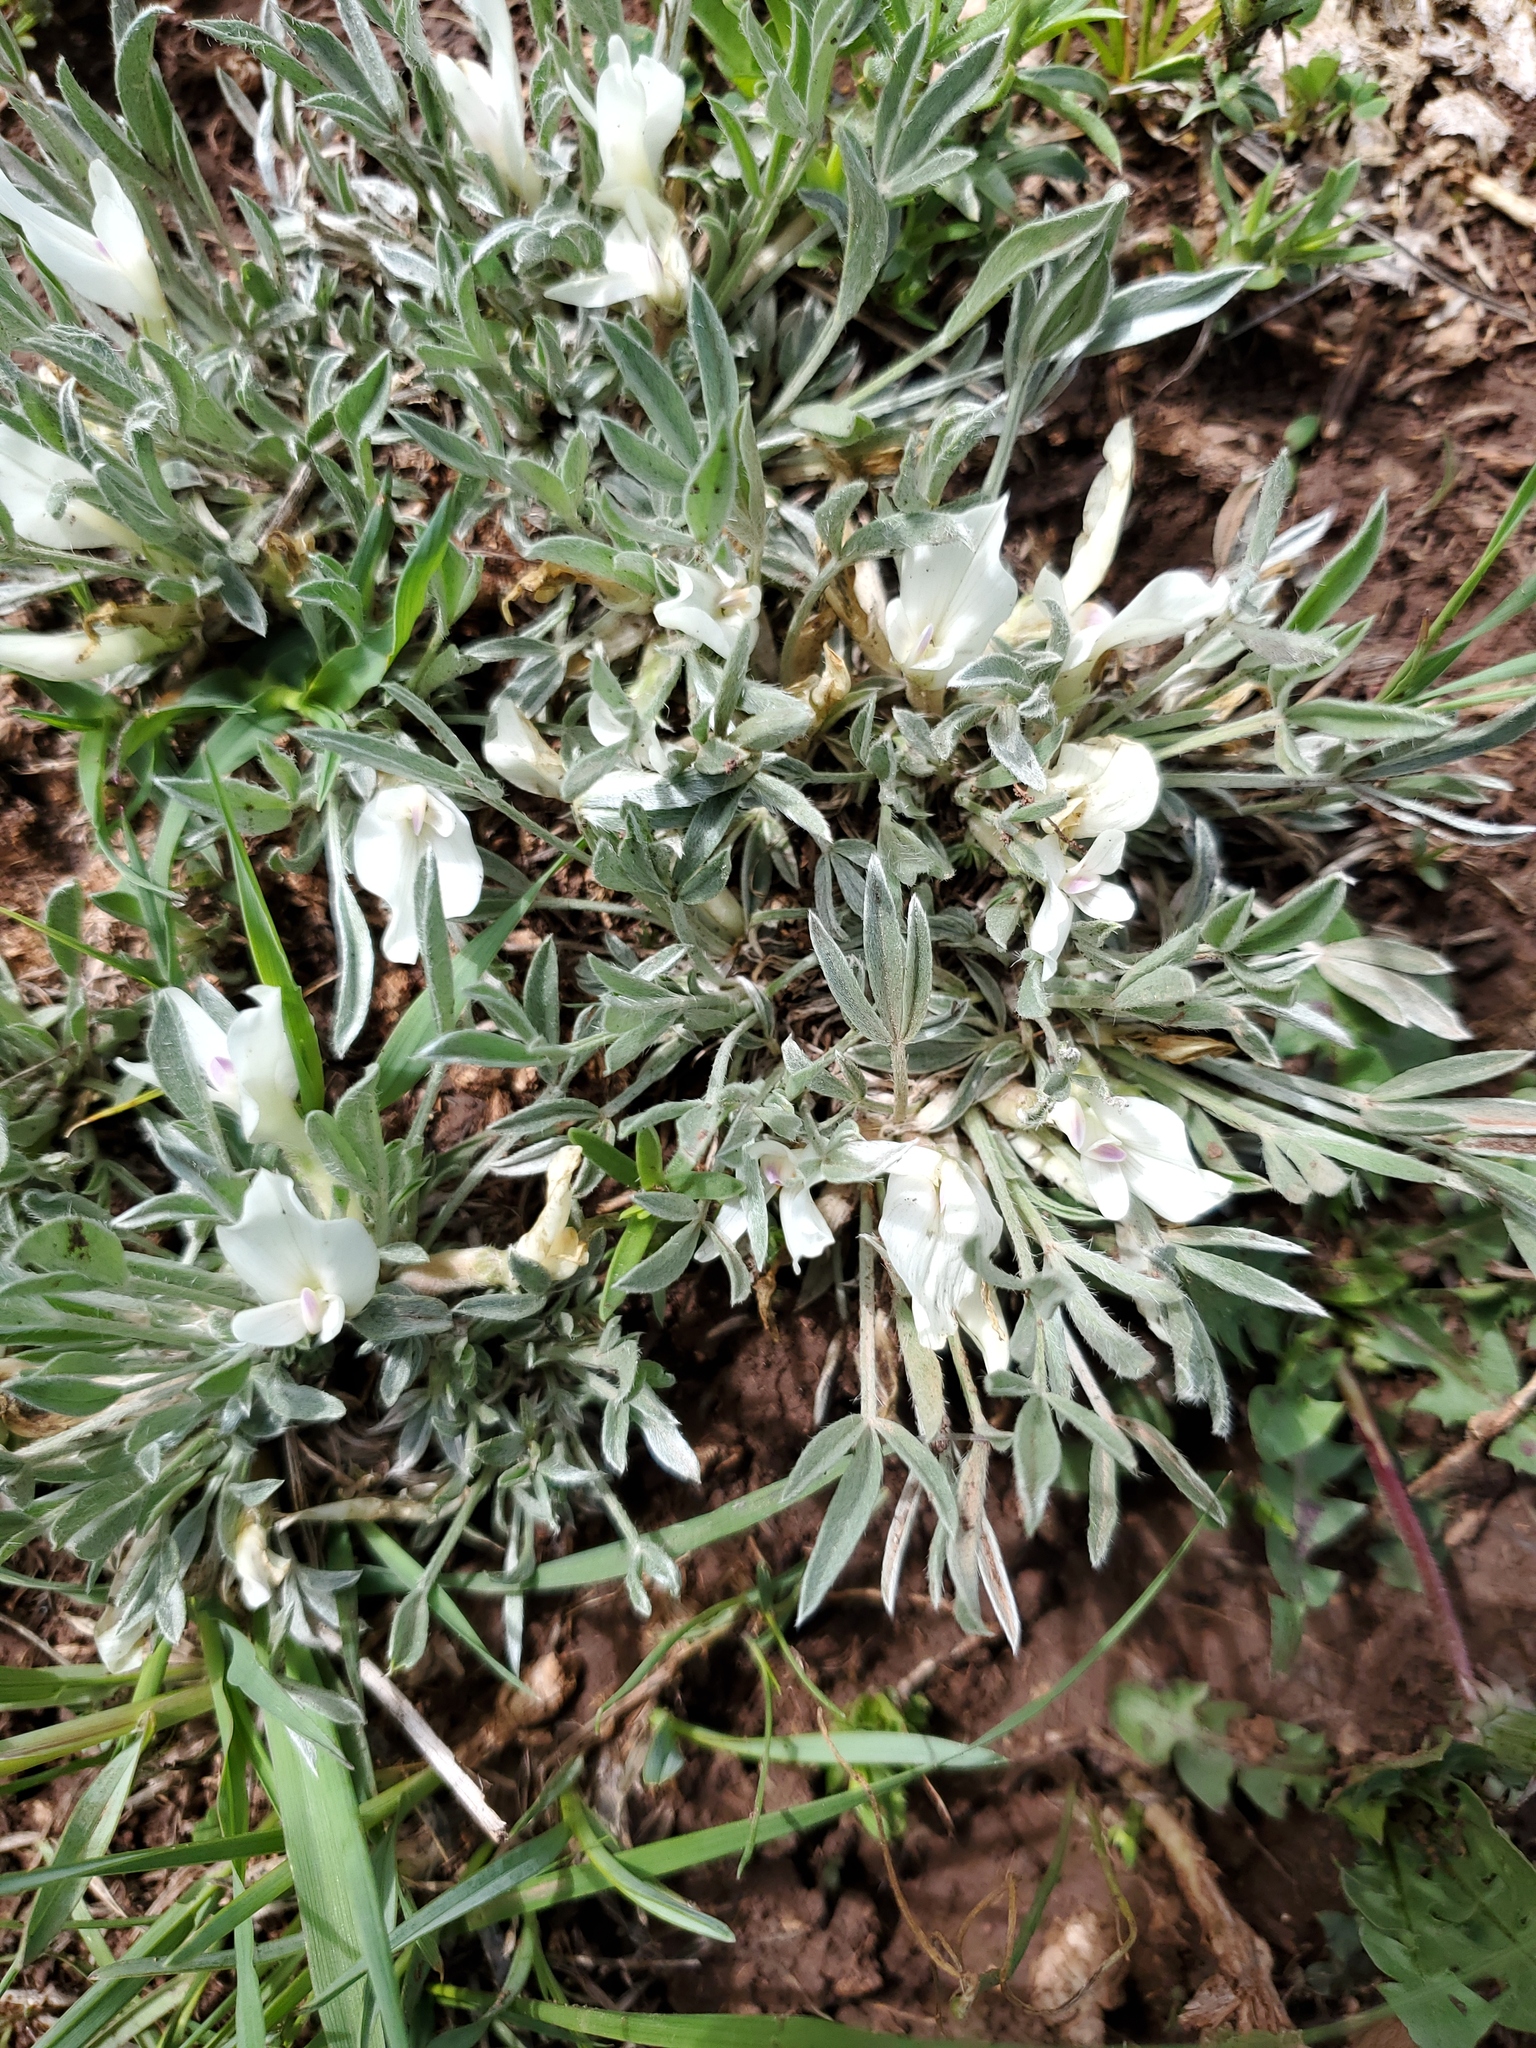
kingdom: Plantae
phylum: Tracheophyta
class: Magnoliopsida
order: Fabales
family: Fabaceae
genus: Astragalus
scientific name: Astragalus gilviflorus
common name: Cushion milk-vetch
